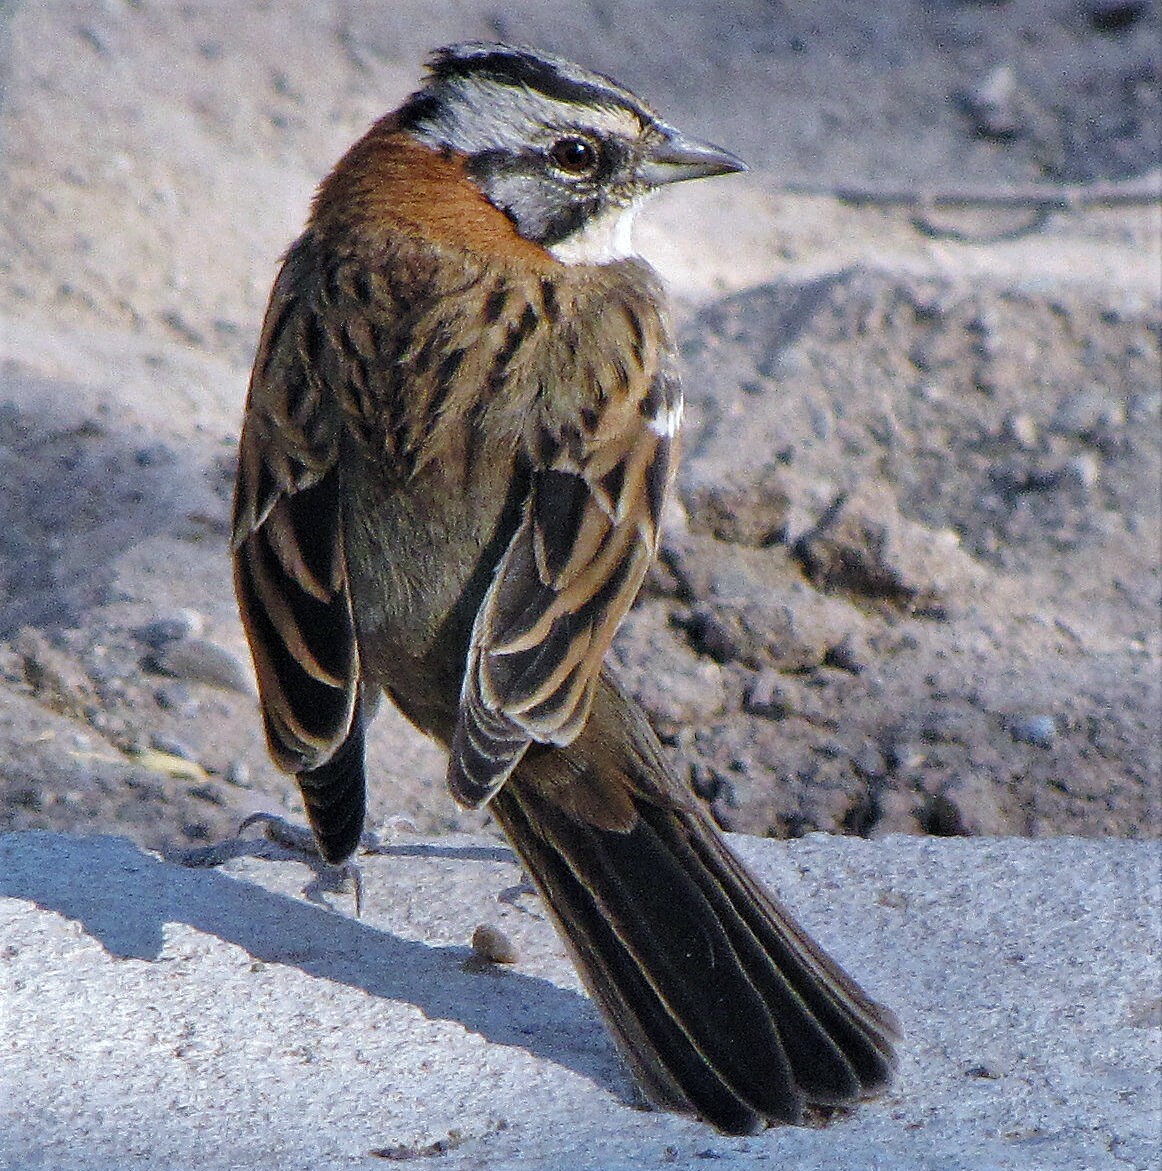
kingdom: Animalia
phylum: Chordata
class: Aves
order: Passeriformes
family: Passerellidae
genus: Zonotrichia
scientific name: Zonotrichia capensis
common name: Rufous-collared sparrow
